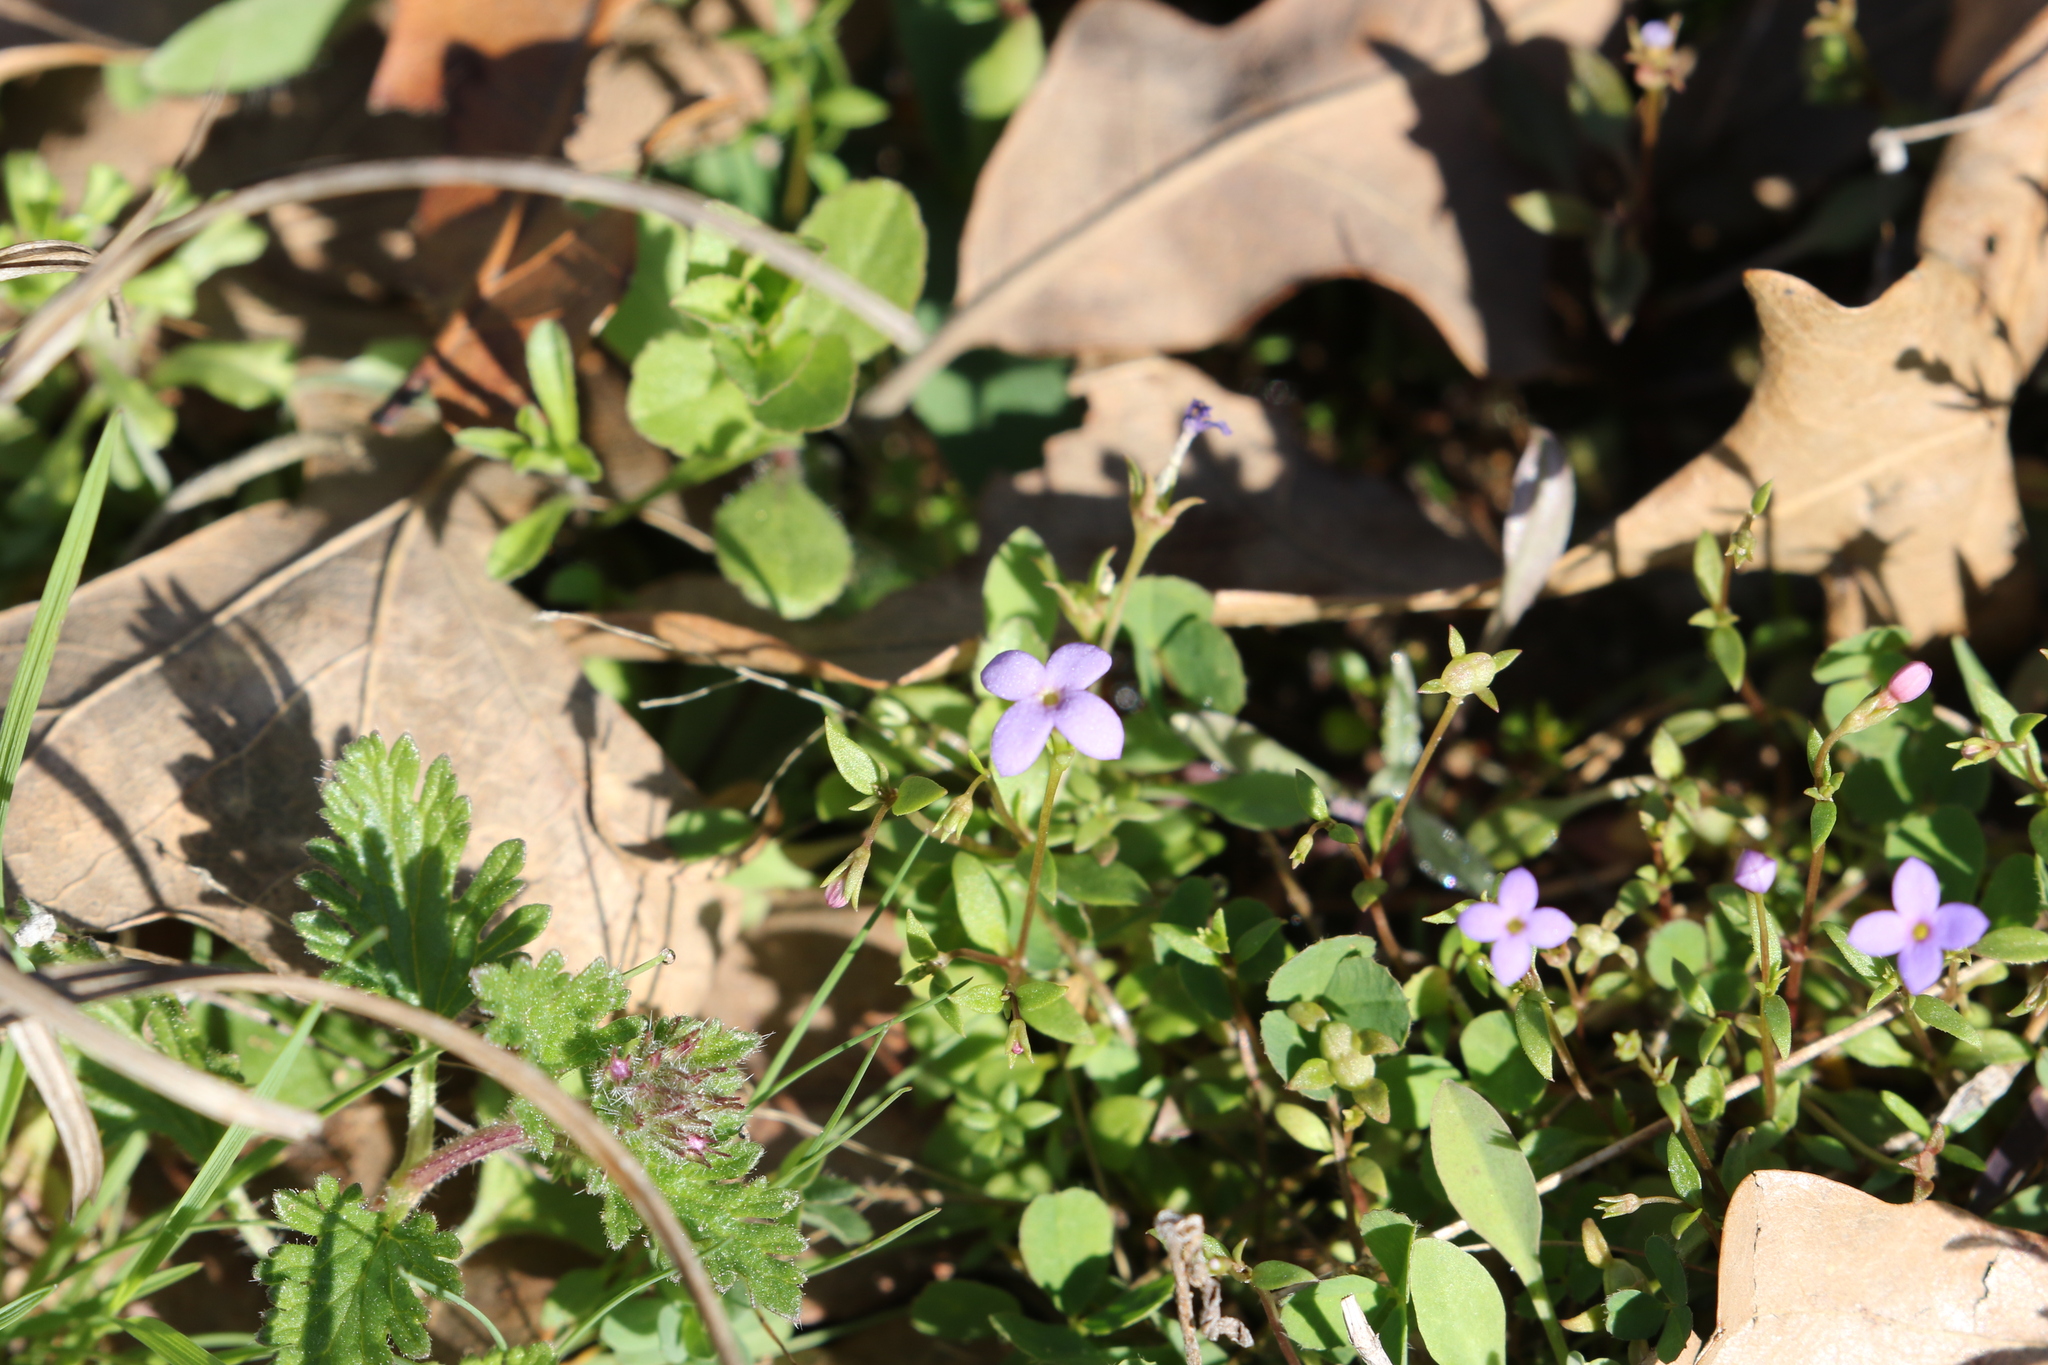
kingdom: Plantae
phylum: Tracheophyta
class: Magnoliopsida
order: Gentianales
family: Rubiaceae
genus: Houstonia
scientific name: Houstonia pusilla
